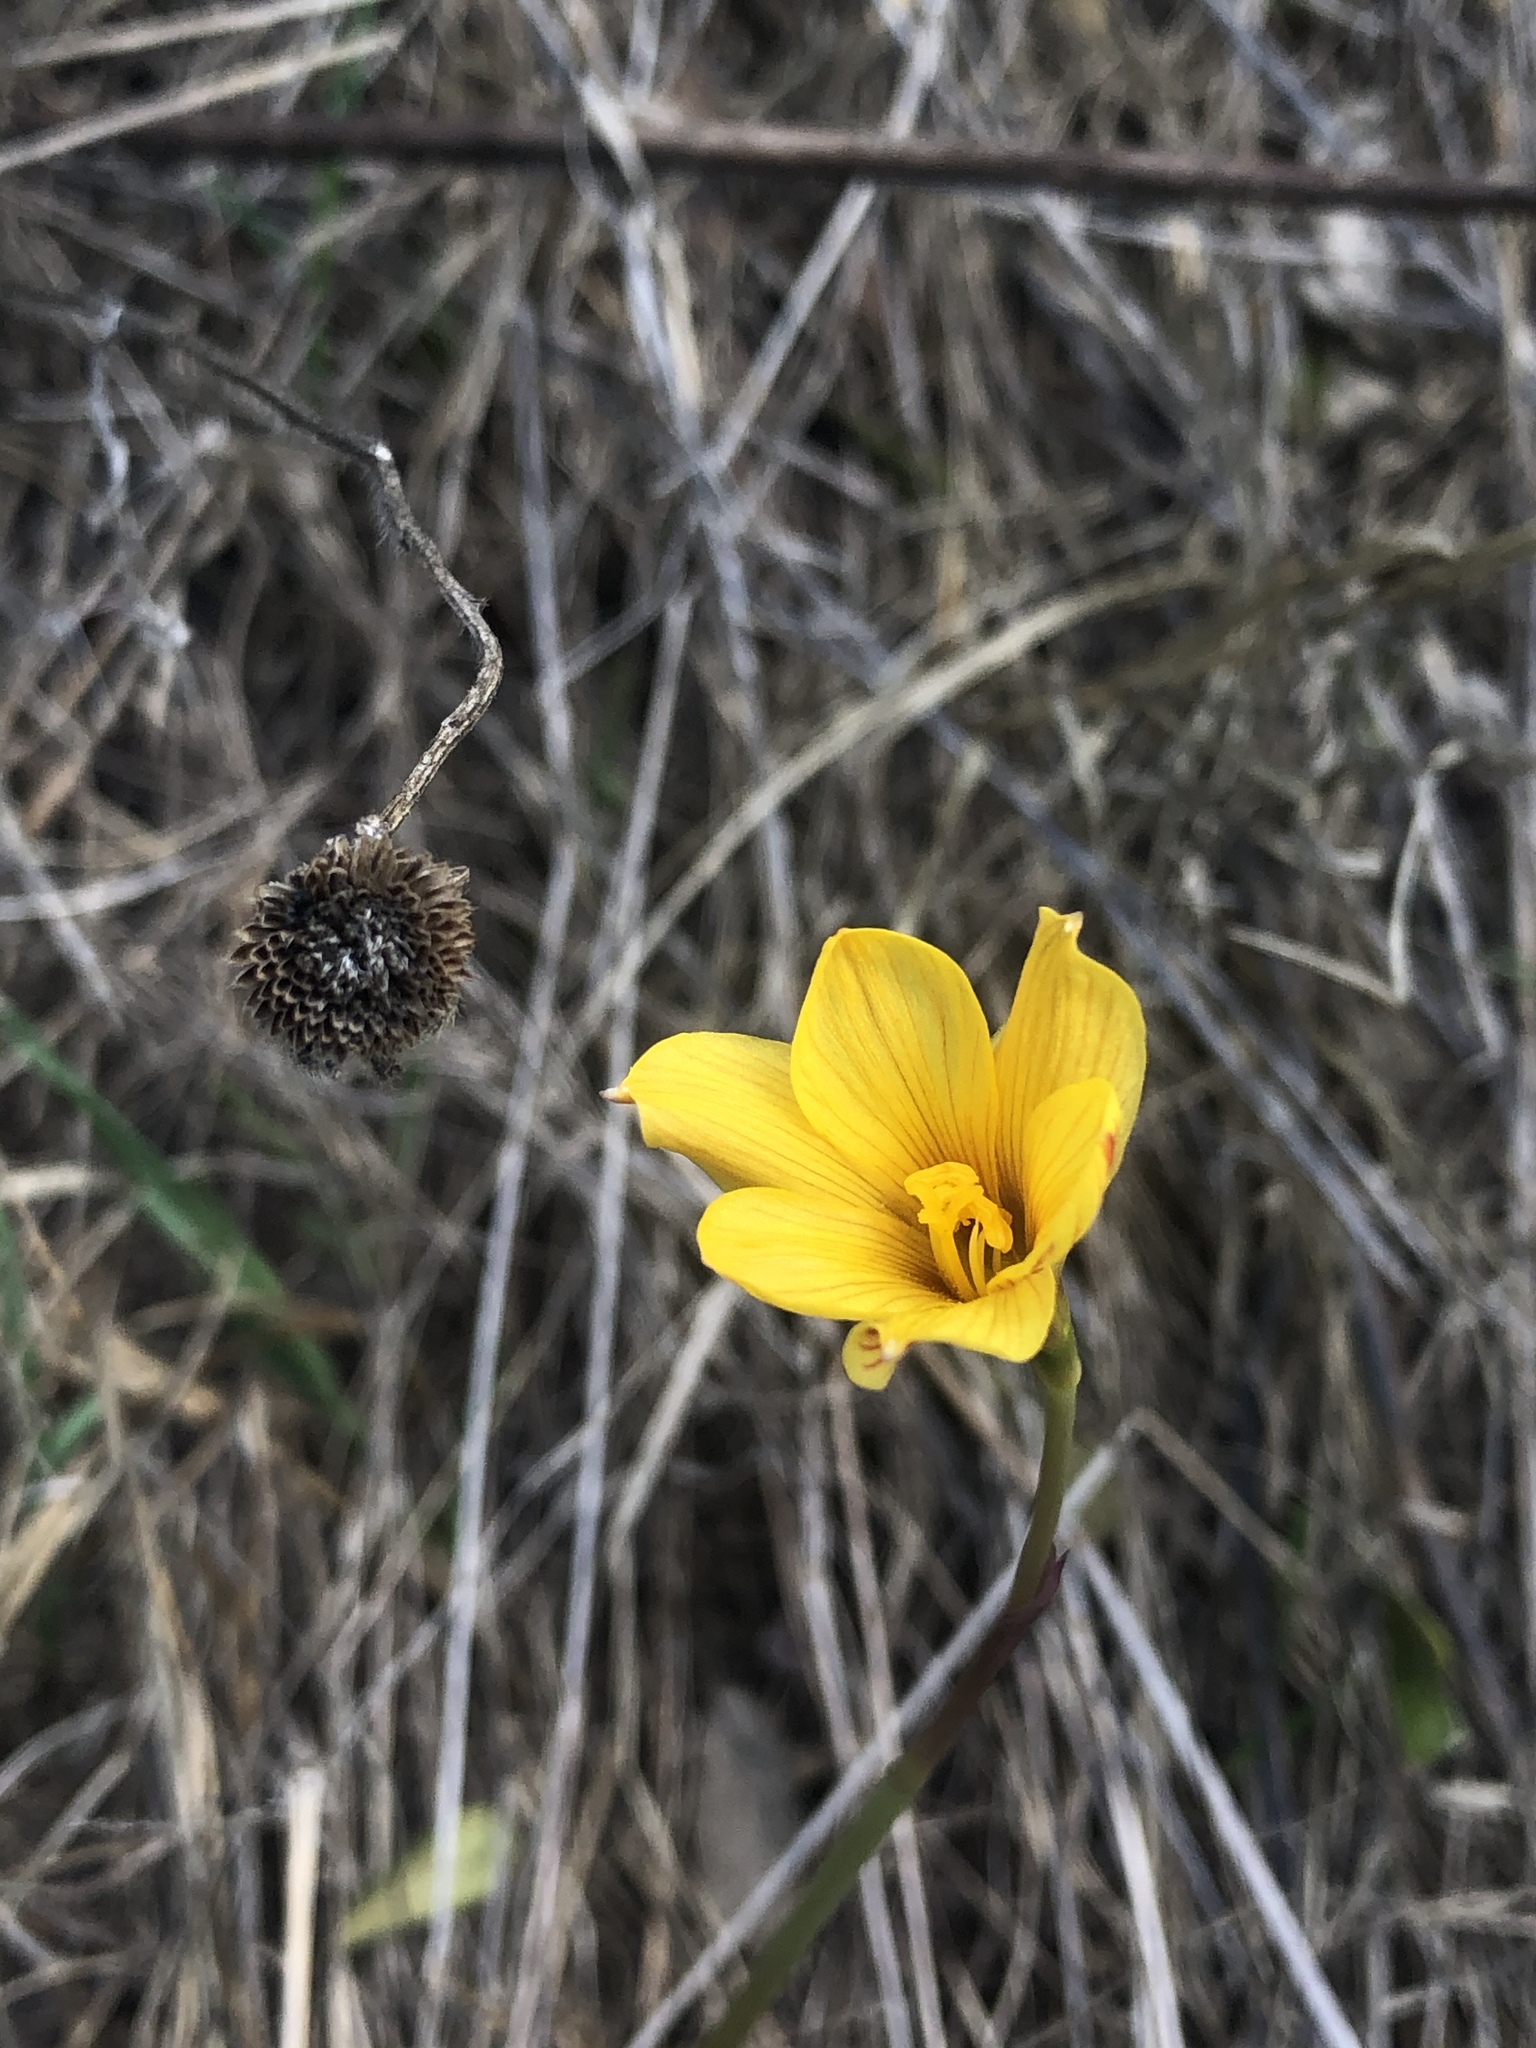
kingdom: Plantae
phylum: Tracheophyta
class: Liliopsida
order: Asparagales
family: Amaryllidaceae
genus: Zephyranthes
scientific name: Zephyranthes tubispatha
